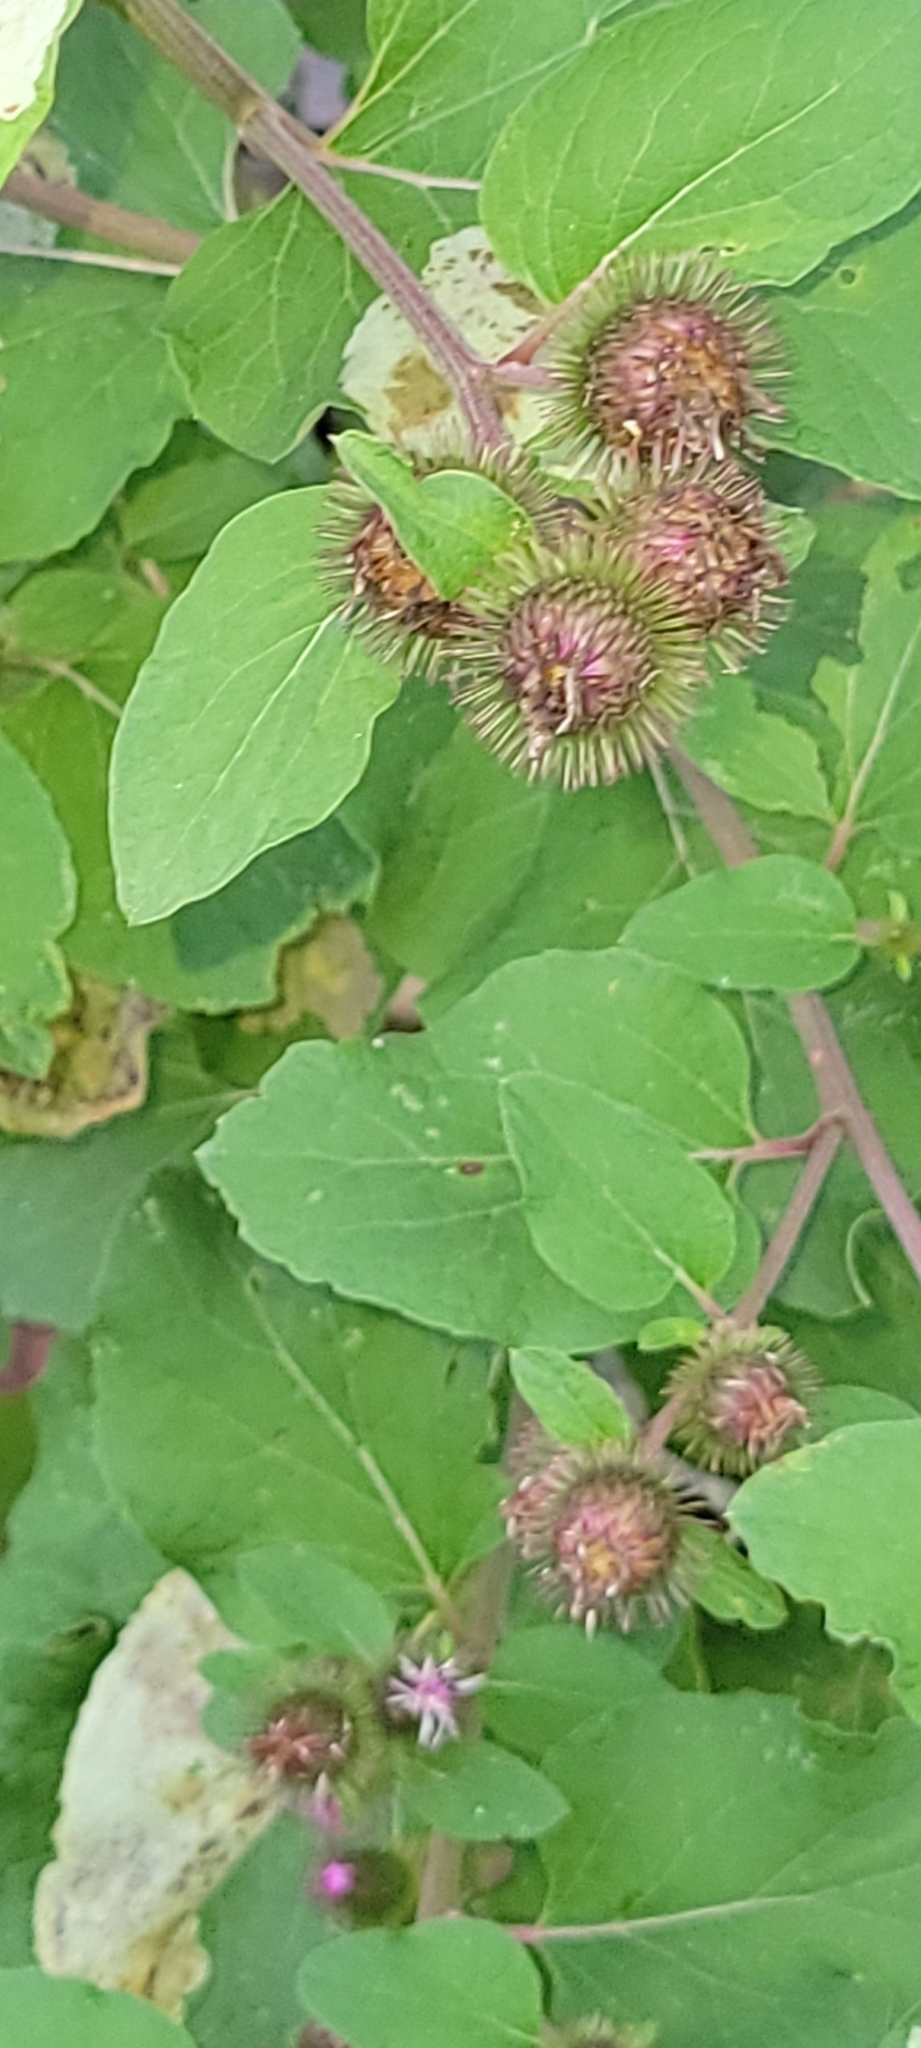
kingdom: Plantae
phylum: Tracheophyta
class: Magnoliopsida
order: Asterales
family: Asteraceae
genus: Arctium
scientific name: Arctium minus
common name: Lesser burdock
